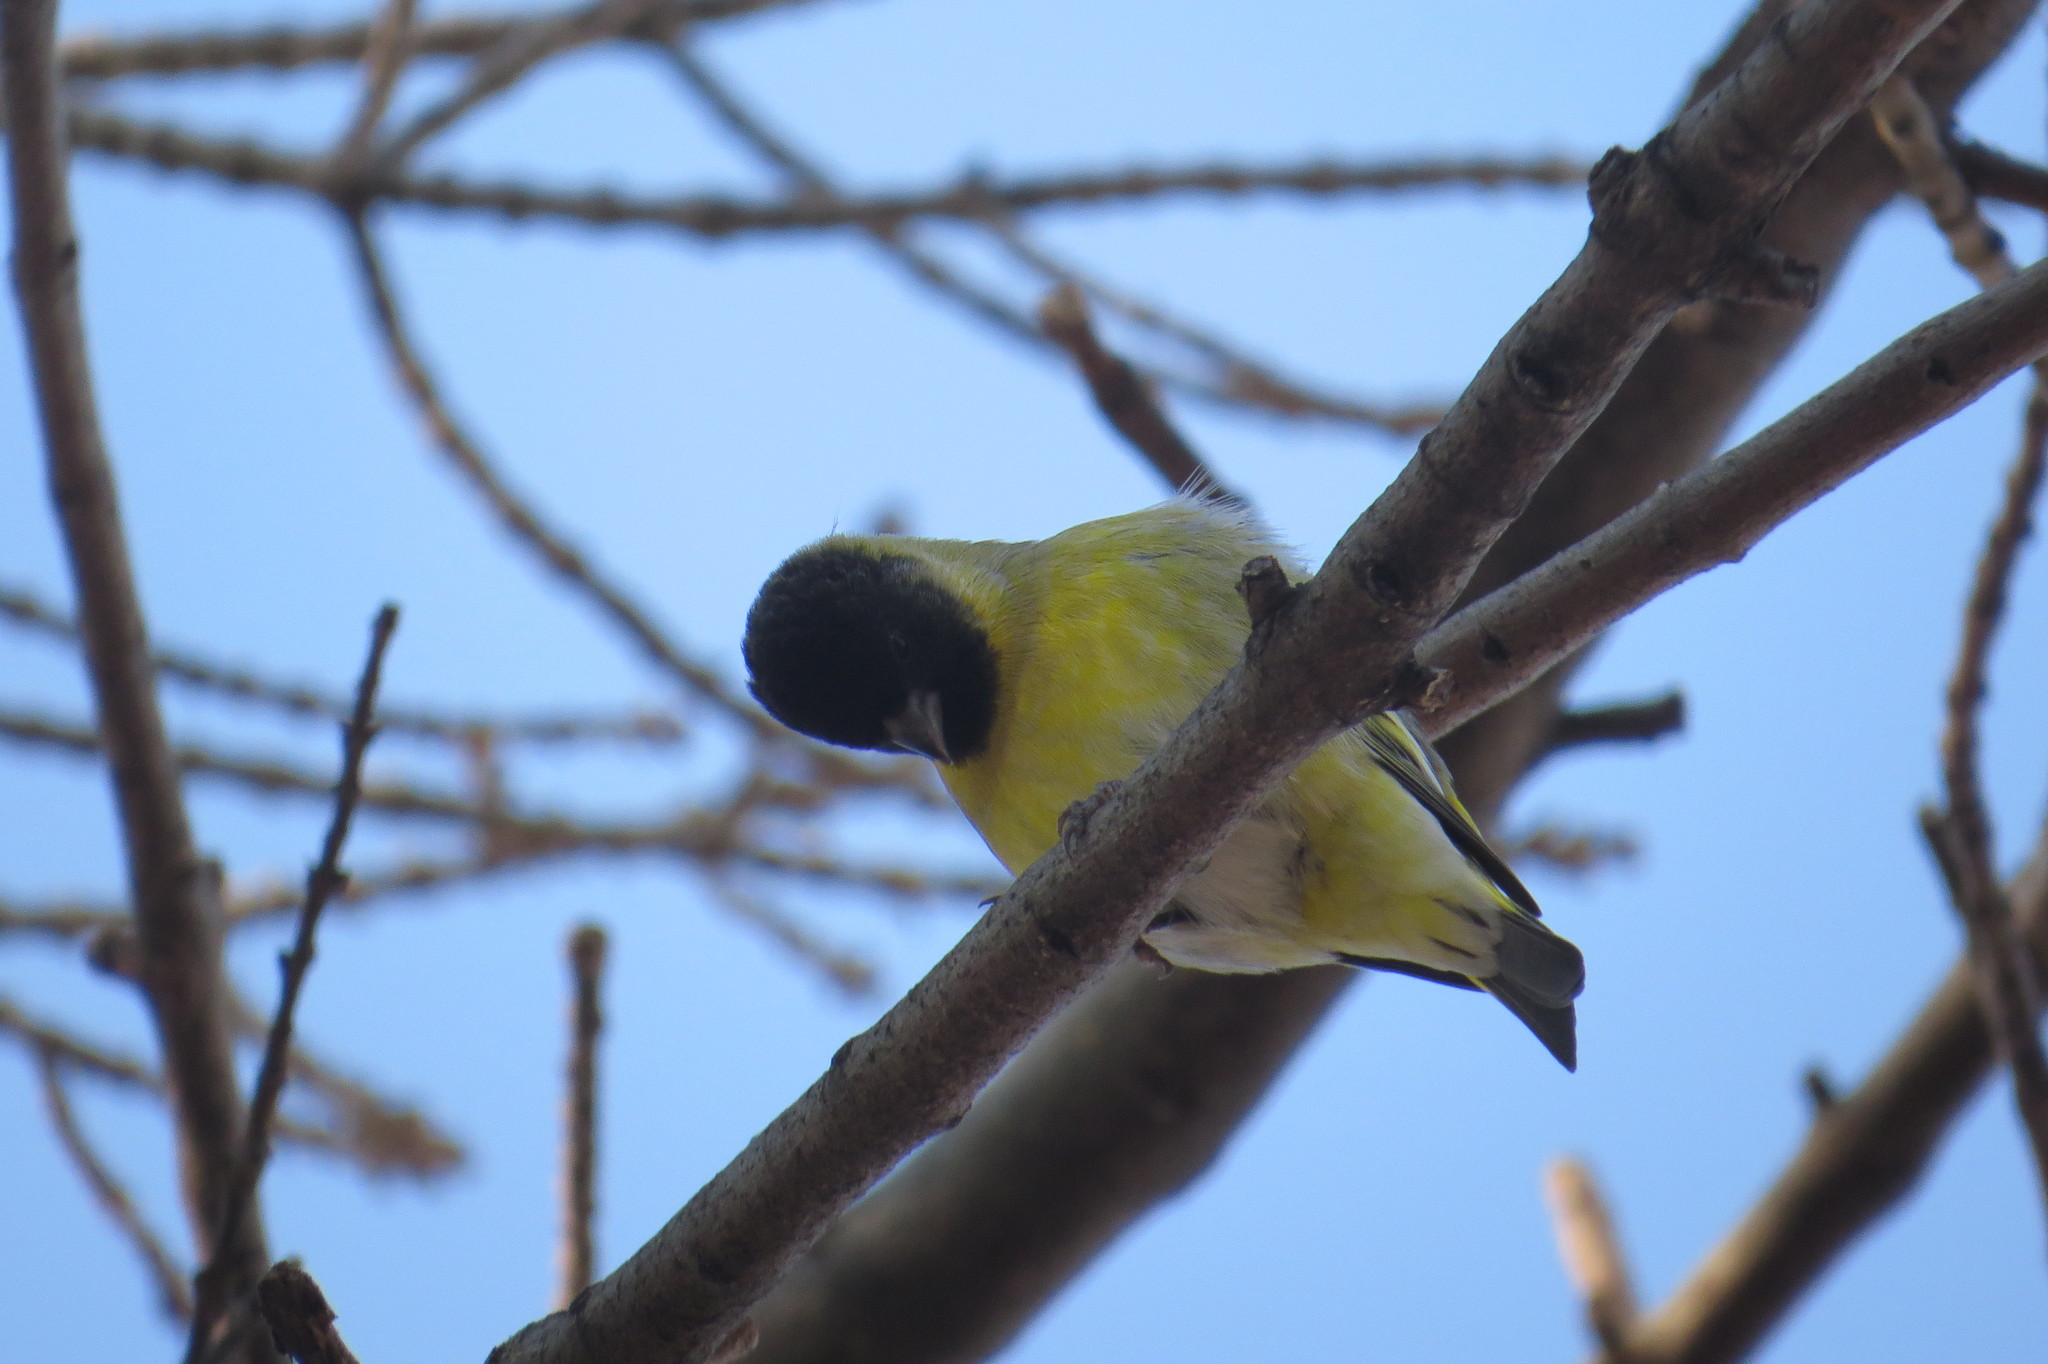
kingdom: Animalia
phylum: Chordata
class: Aves
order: Passeriformes
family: Fringillidae
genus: Spinus
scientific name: Spinus magellanicus
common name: Hooded siskin
